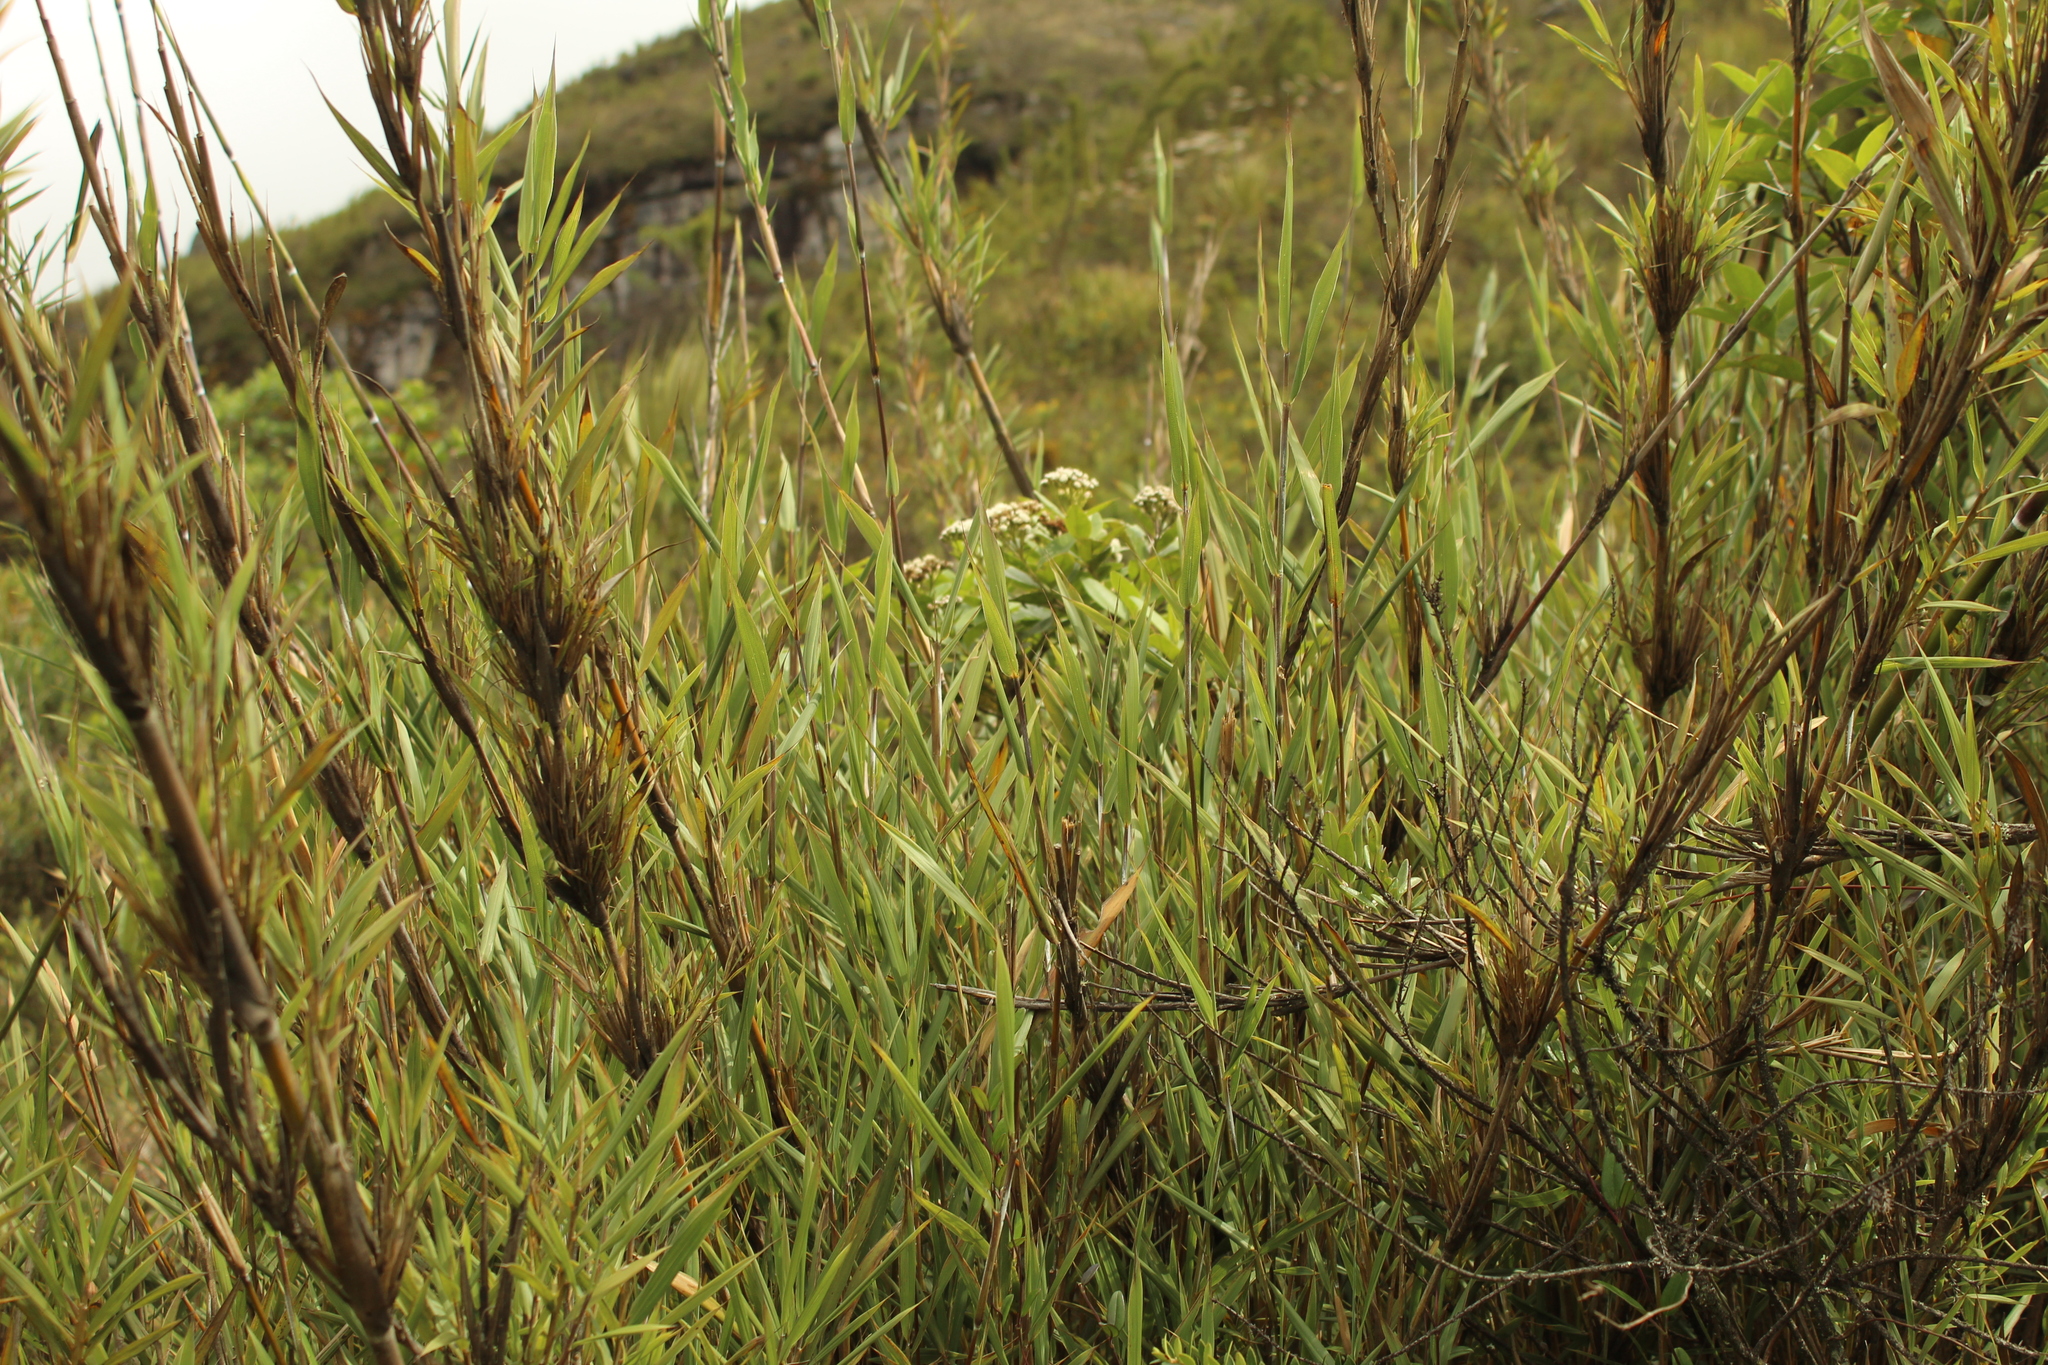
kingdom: Plantae
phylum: Tracheophyta
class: Liliopsida
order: Poales
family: Poaceae
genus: Chusquea
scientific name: Chusquea tessellata
